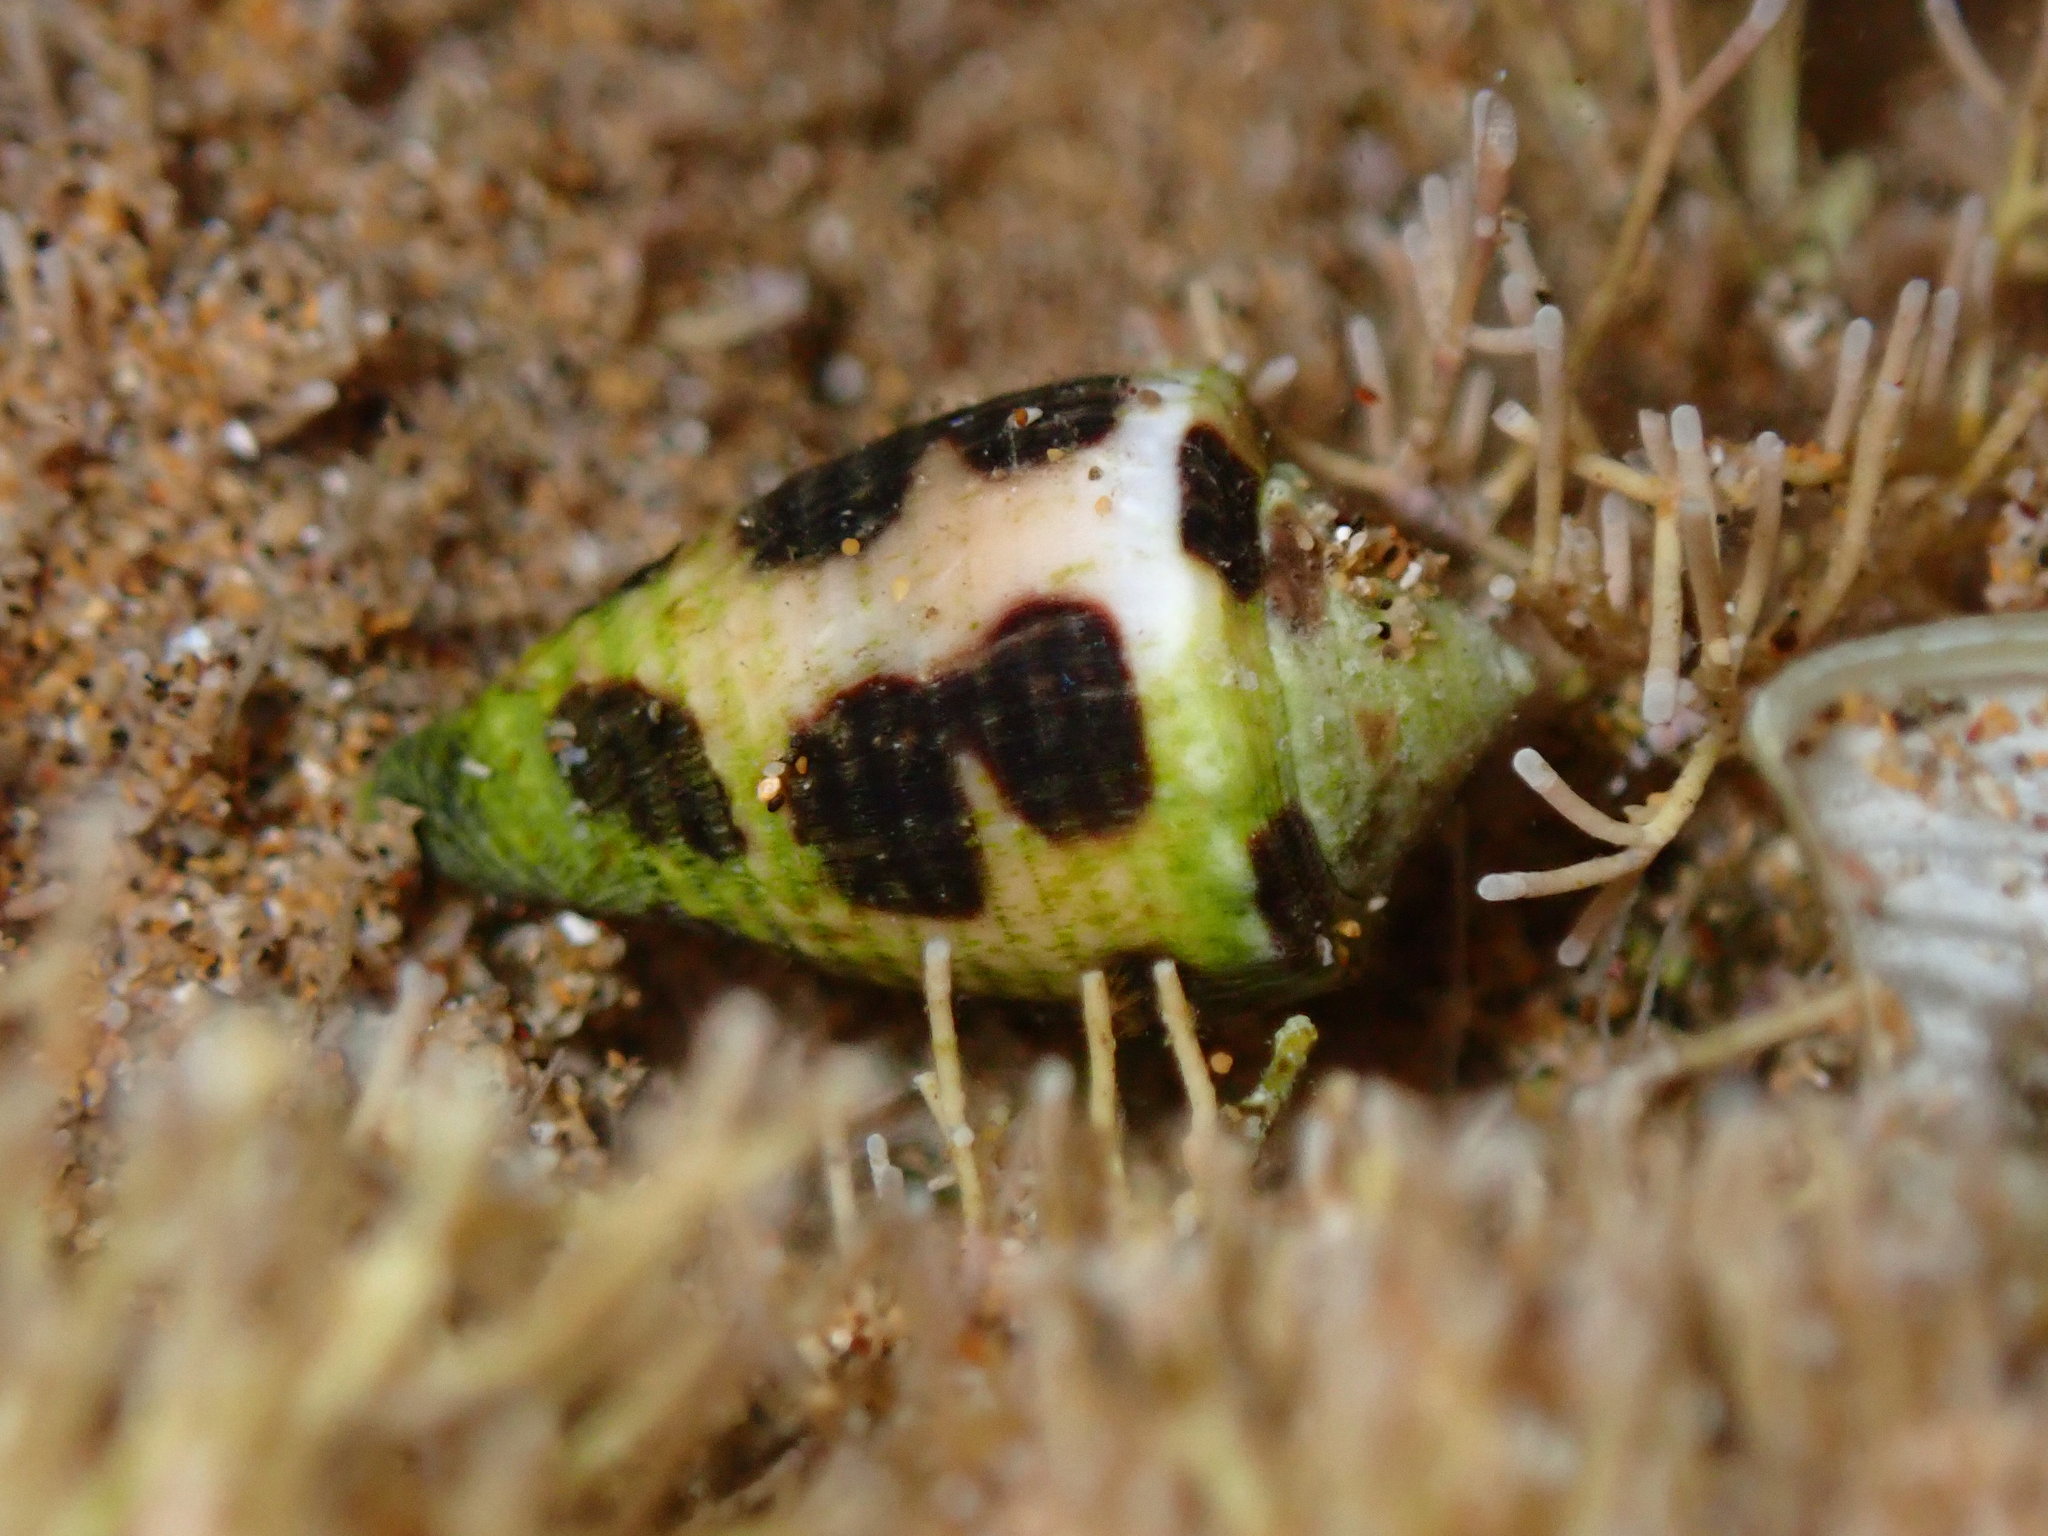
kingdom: Animalia
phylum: Mollusca
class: Gastropoda
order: Neogastropoda
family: Conidae
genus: Conus
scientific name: Conus ebraeus
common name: Hebrew cone
